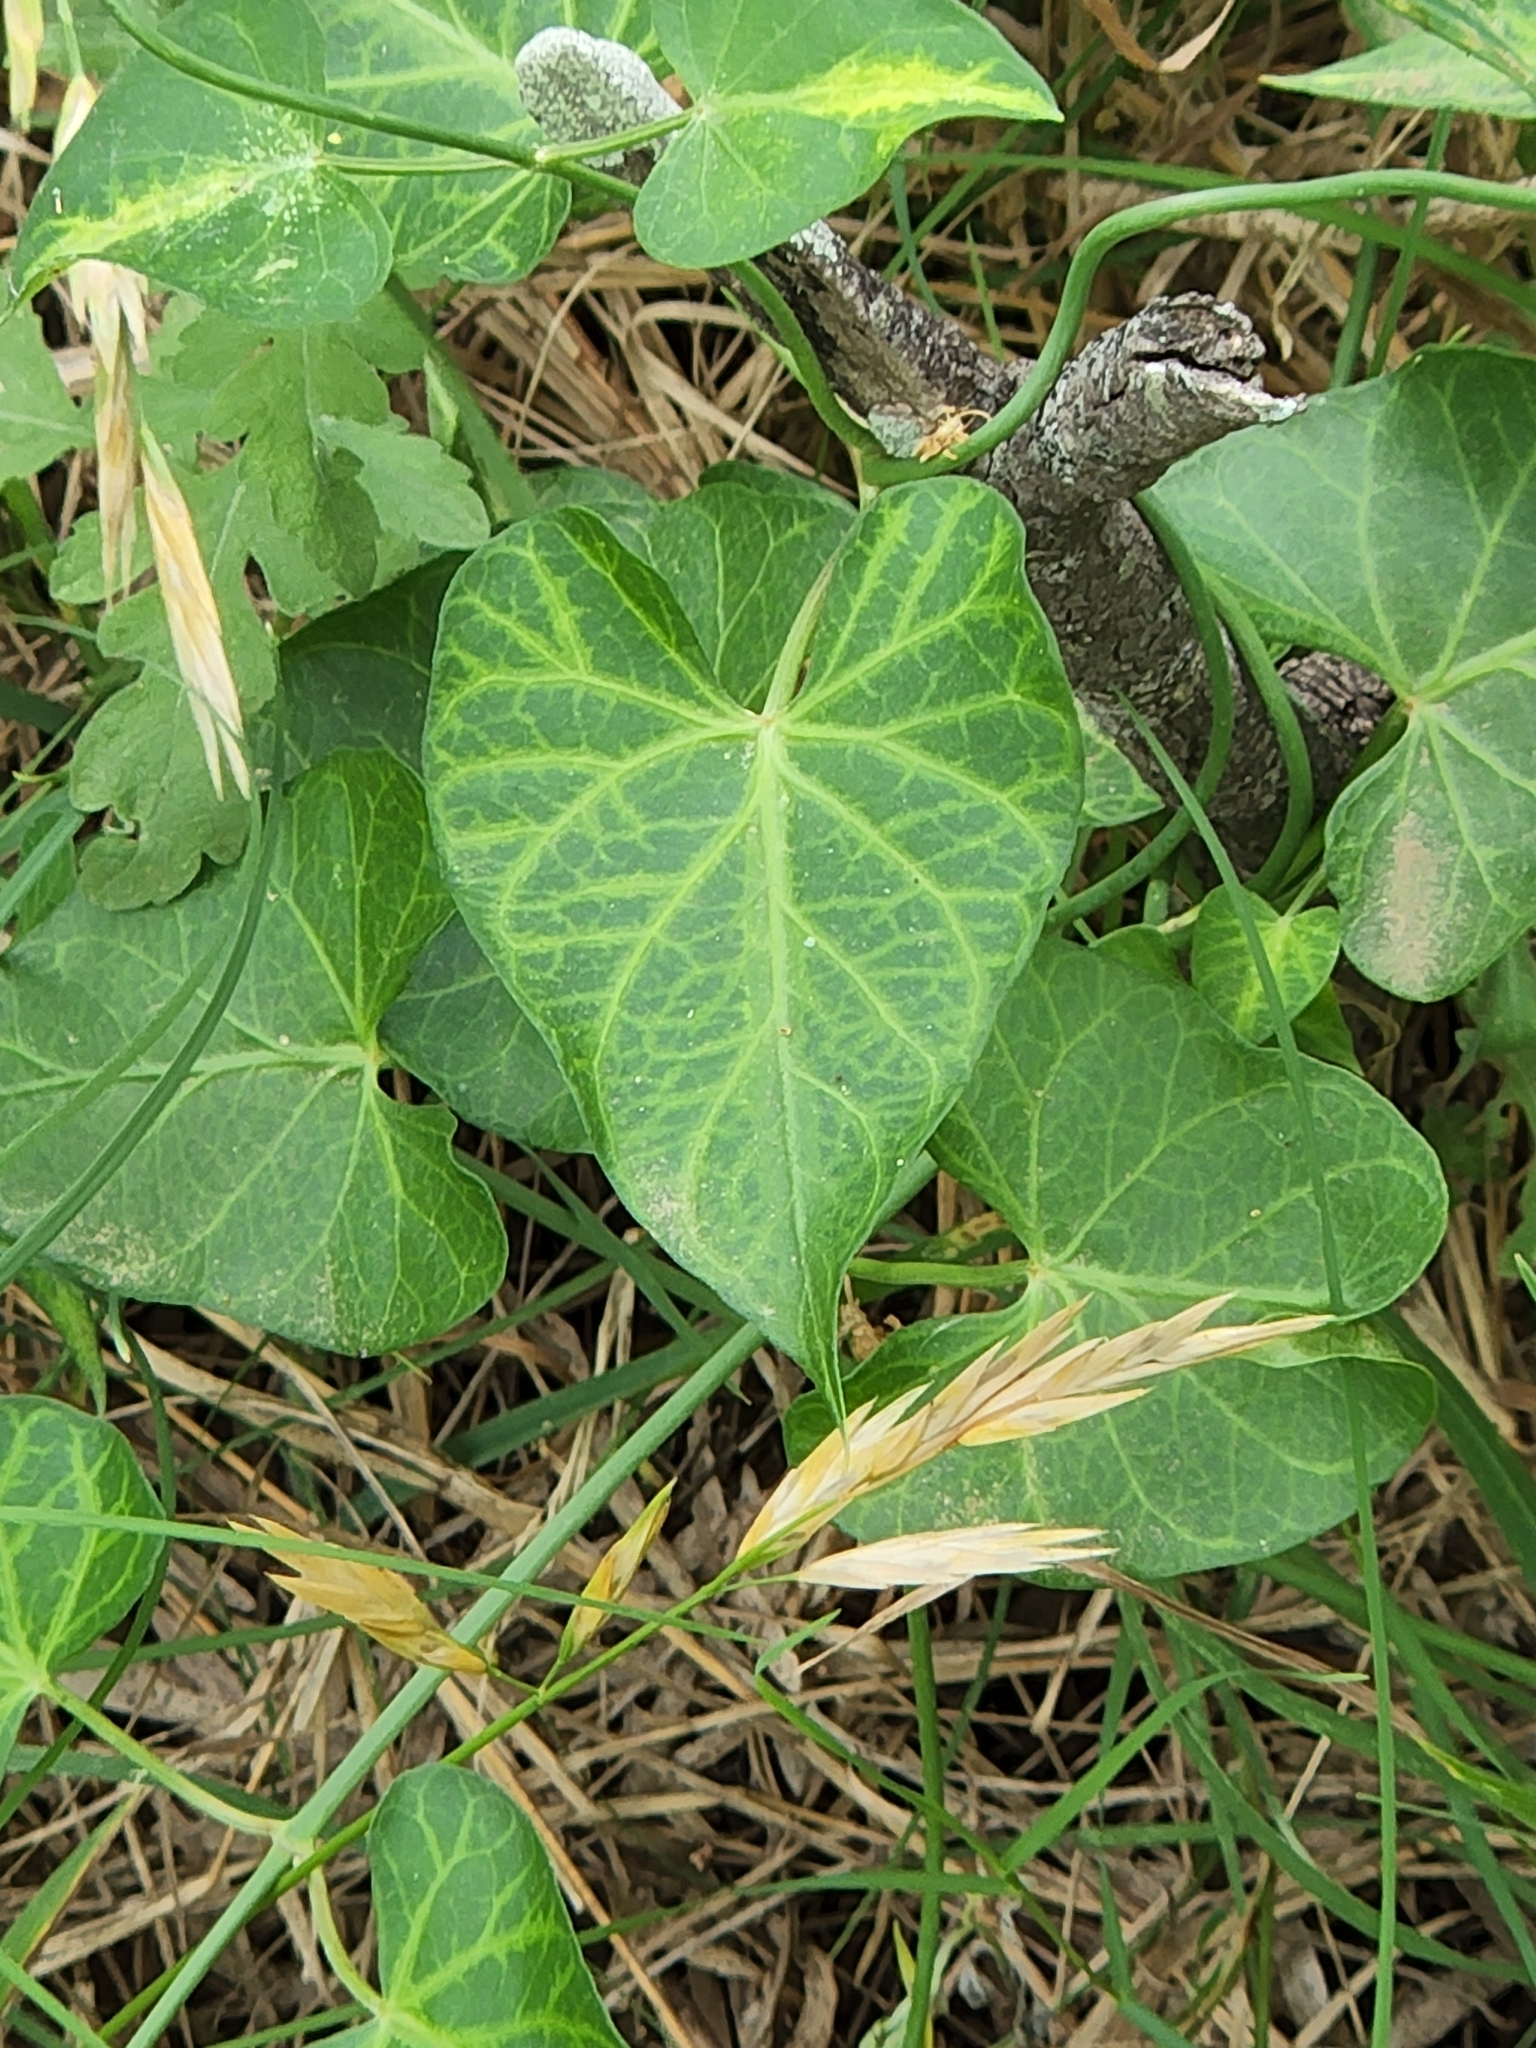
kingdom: Plantae
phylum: Tracheophyta
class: Magnoliopsida
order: Gentianales
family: Apocynaceae
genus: Funastrum
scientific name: Funastrum cynanchoides
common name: Climbing-milkweed
